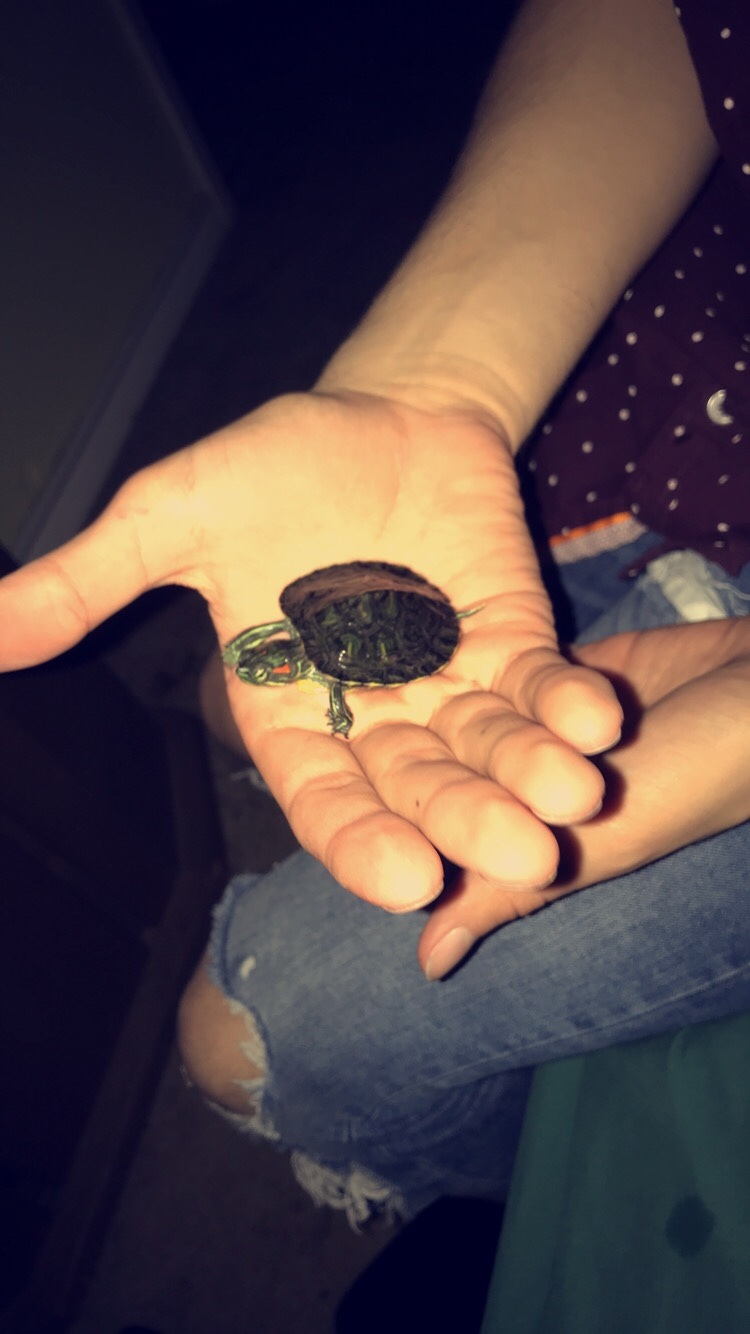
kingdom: Animalia
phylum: Chordata
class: Testudines
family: Emydidae
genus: Trachemys
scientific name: Trachemys scripta
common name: Slider
